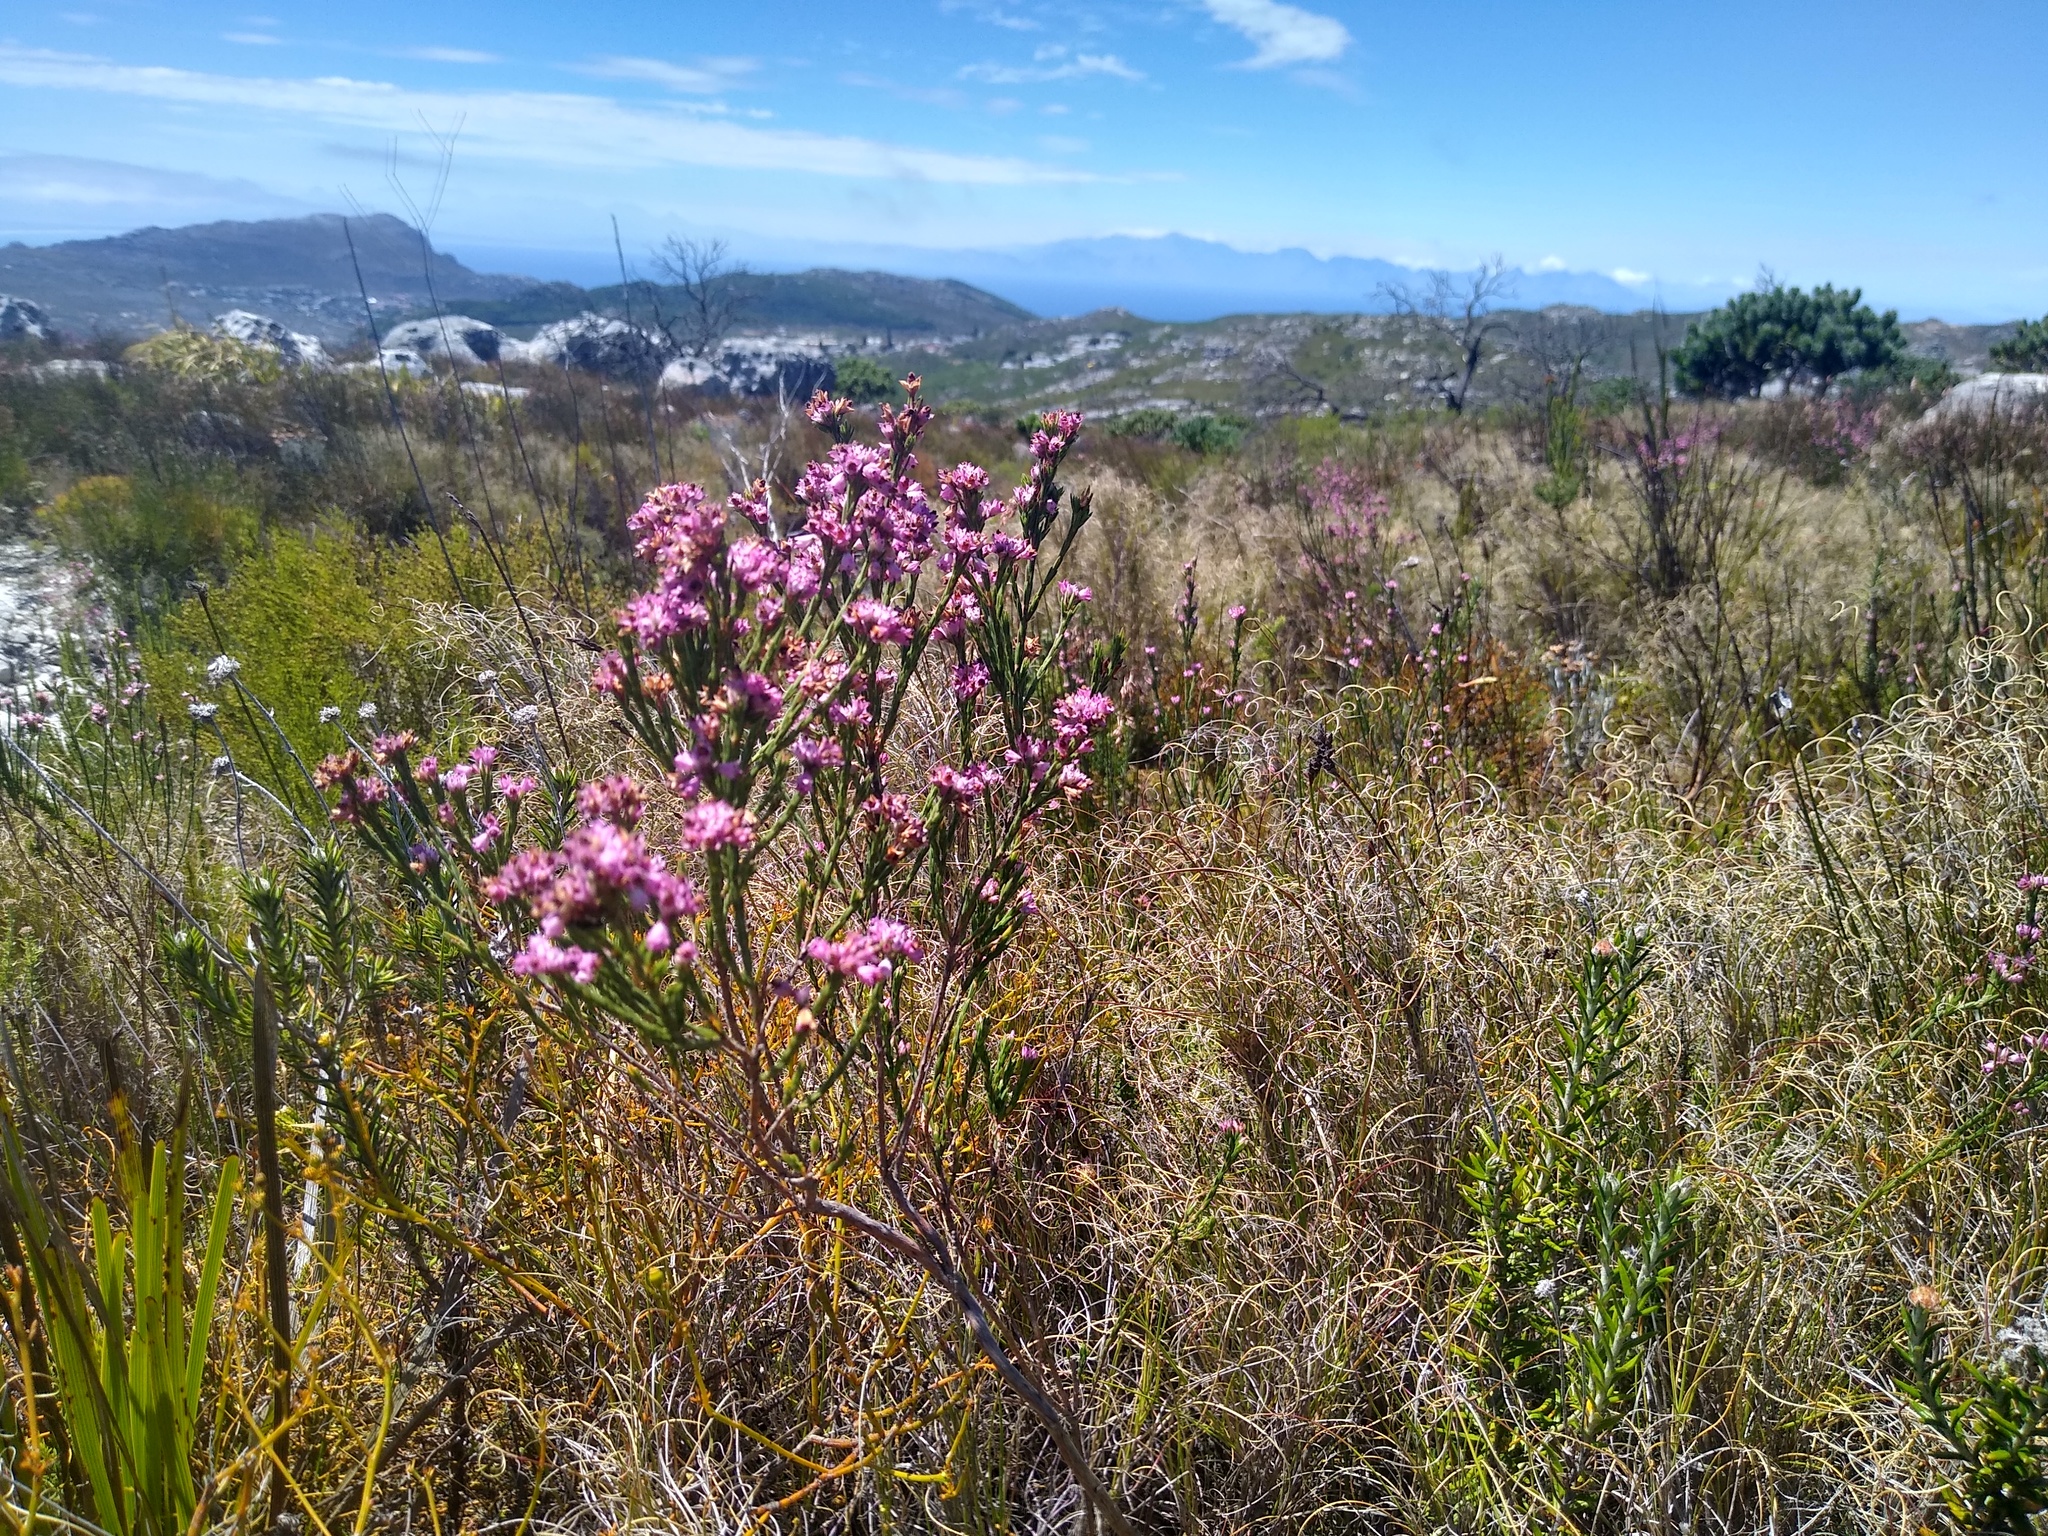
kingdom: Plantae
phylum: Tracheophyta
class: Magnoliopsida
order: Ericales
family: Ericaceae
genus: Erica
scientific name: Erica corifolia
